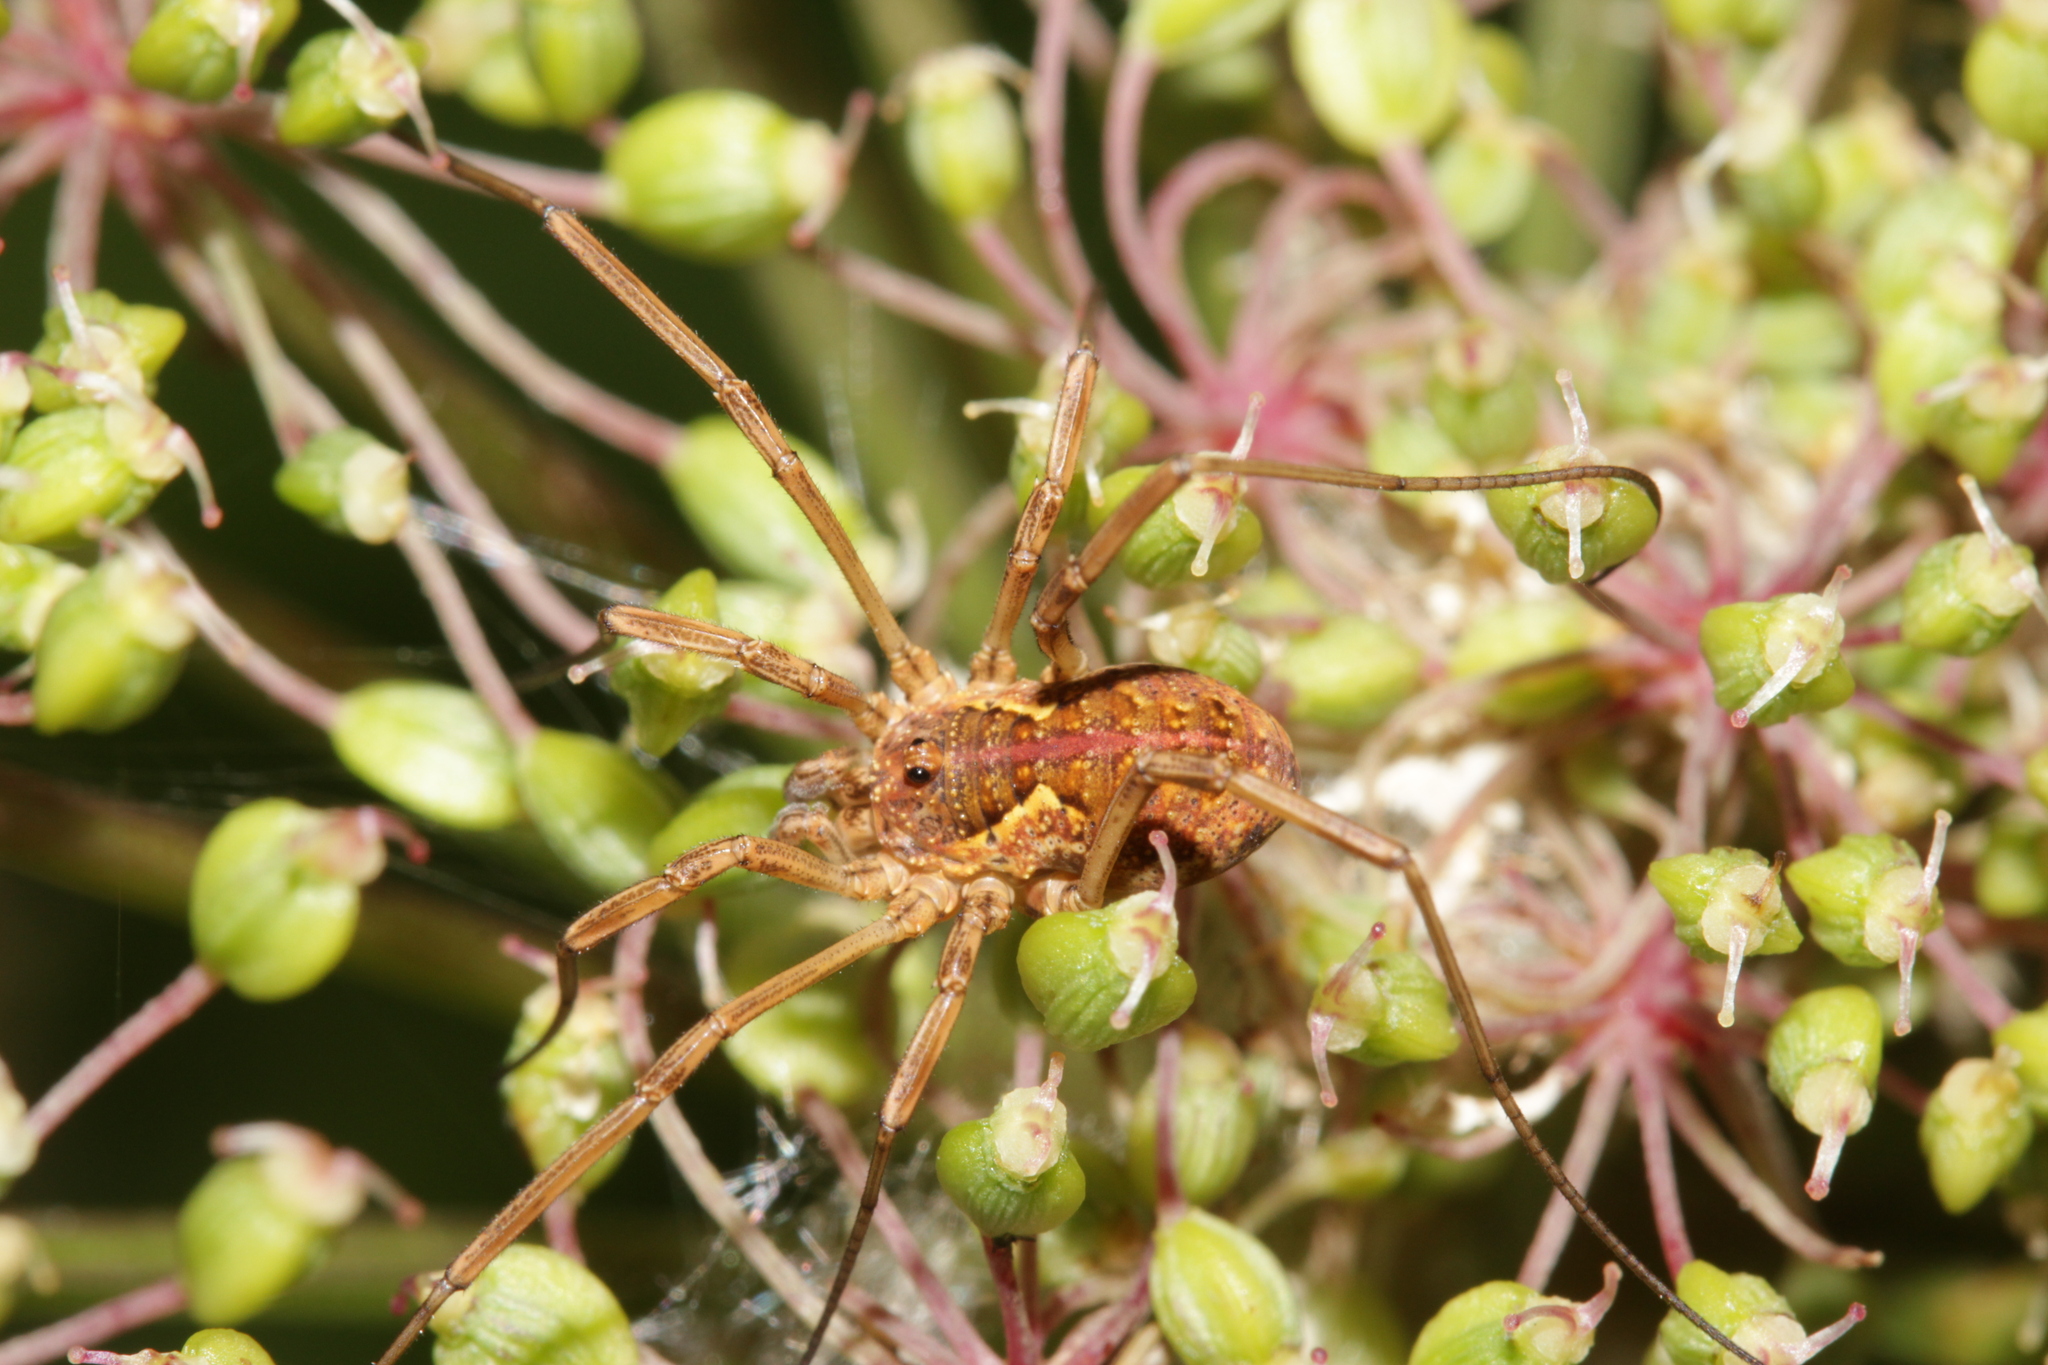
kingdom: Animalia
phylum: Arthropoda
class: Arachnida
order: Opiliones
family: Phalangiidae
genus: Mitopus
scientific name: Mitopus morio
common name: Saddleback harvestman
